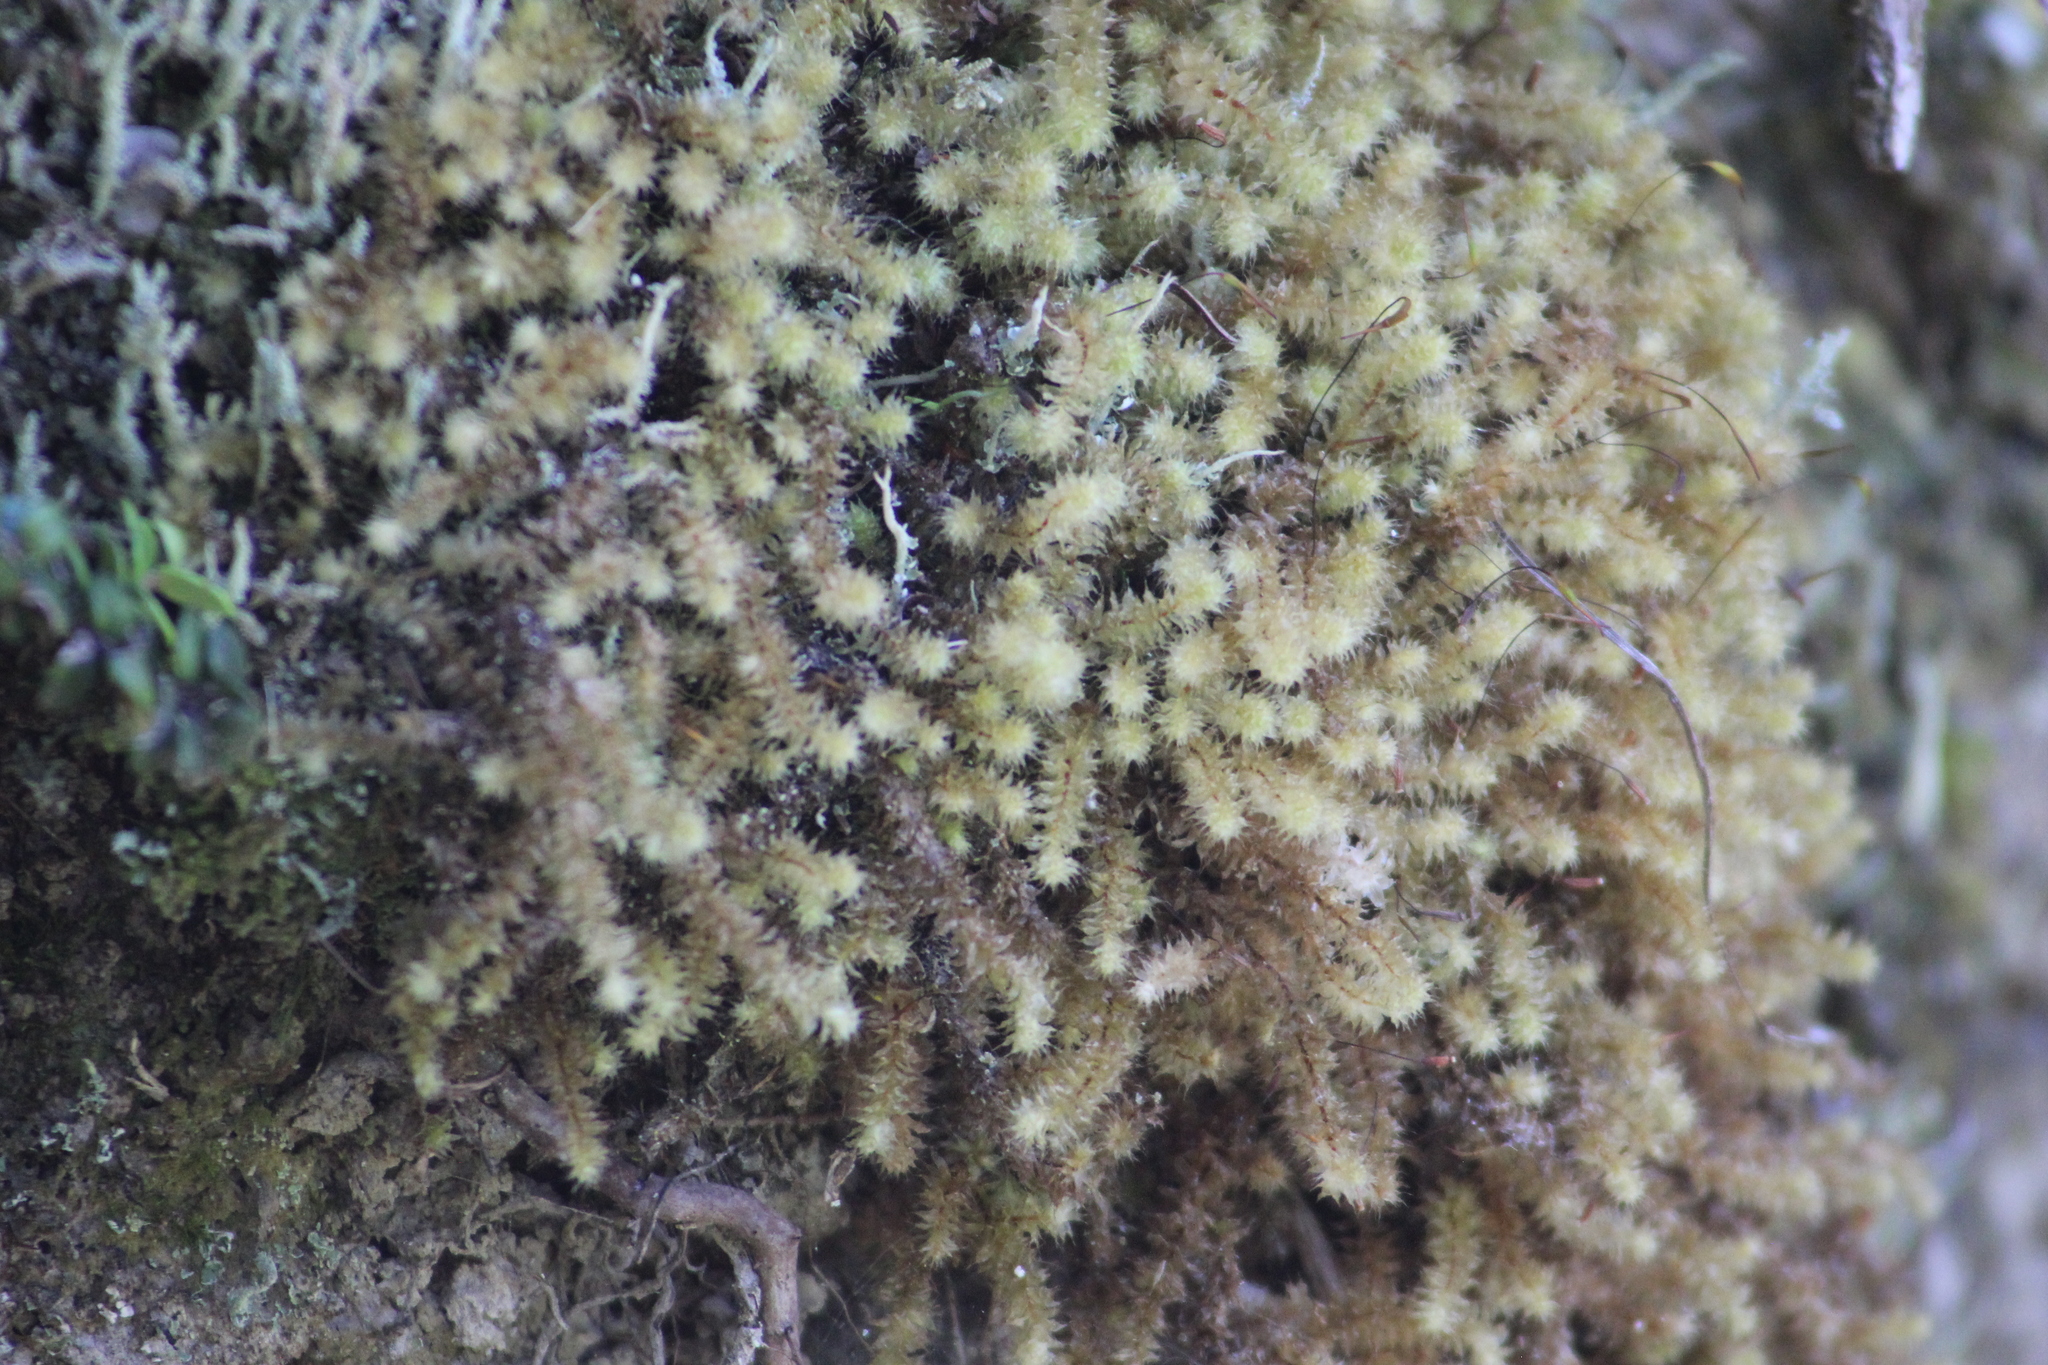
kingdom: Plantae
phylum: Bryophyta
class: Bryopsida
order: Ptychomniales
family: Ptychomniaceae
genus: Ptychomnion
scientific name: Ptychomnion aciculare
